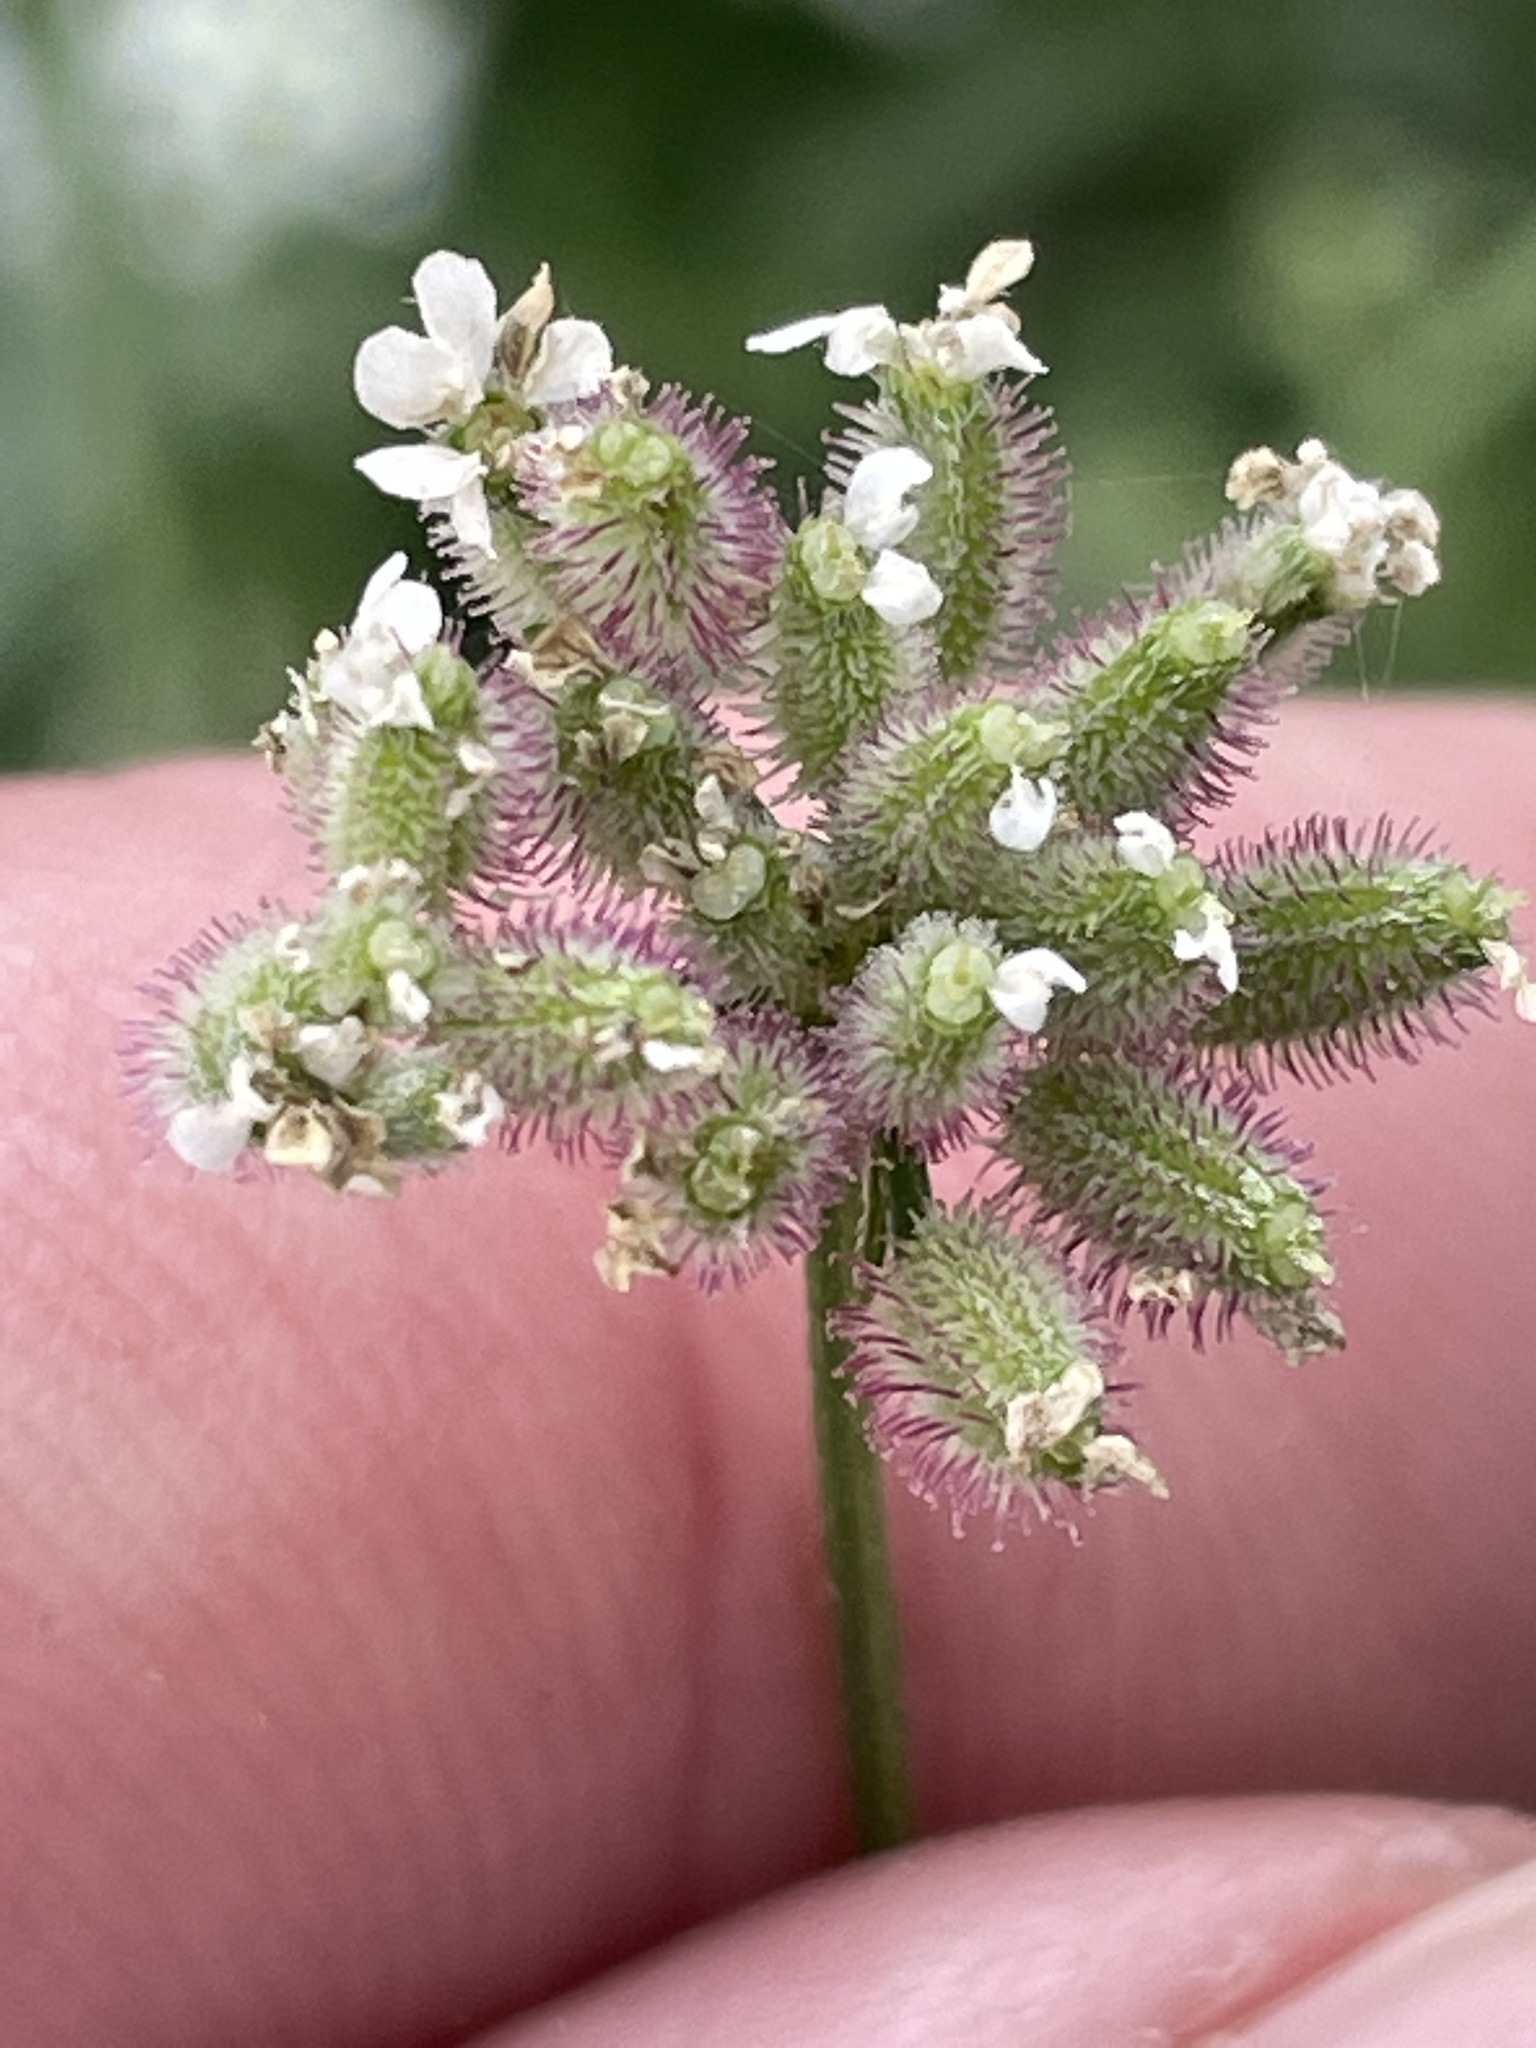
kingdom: Plantae
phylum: Tracheophyta
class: Magnoliopsida
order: Apiales
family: Apiaceae
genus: Torilis
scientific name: Torilis arvensis
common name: Spreading hedge-parsley
